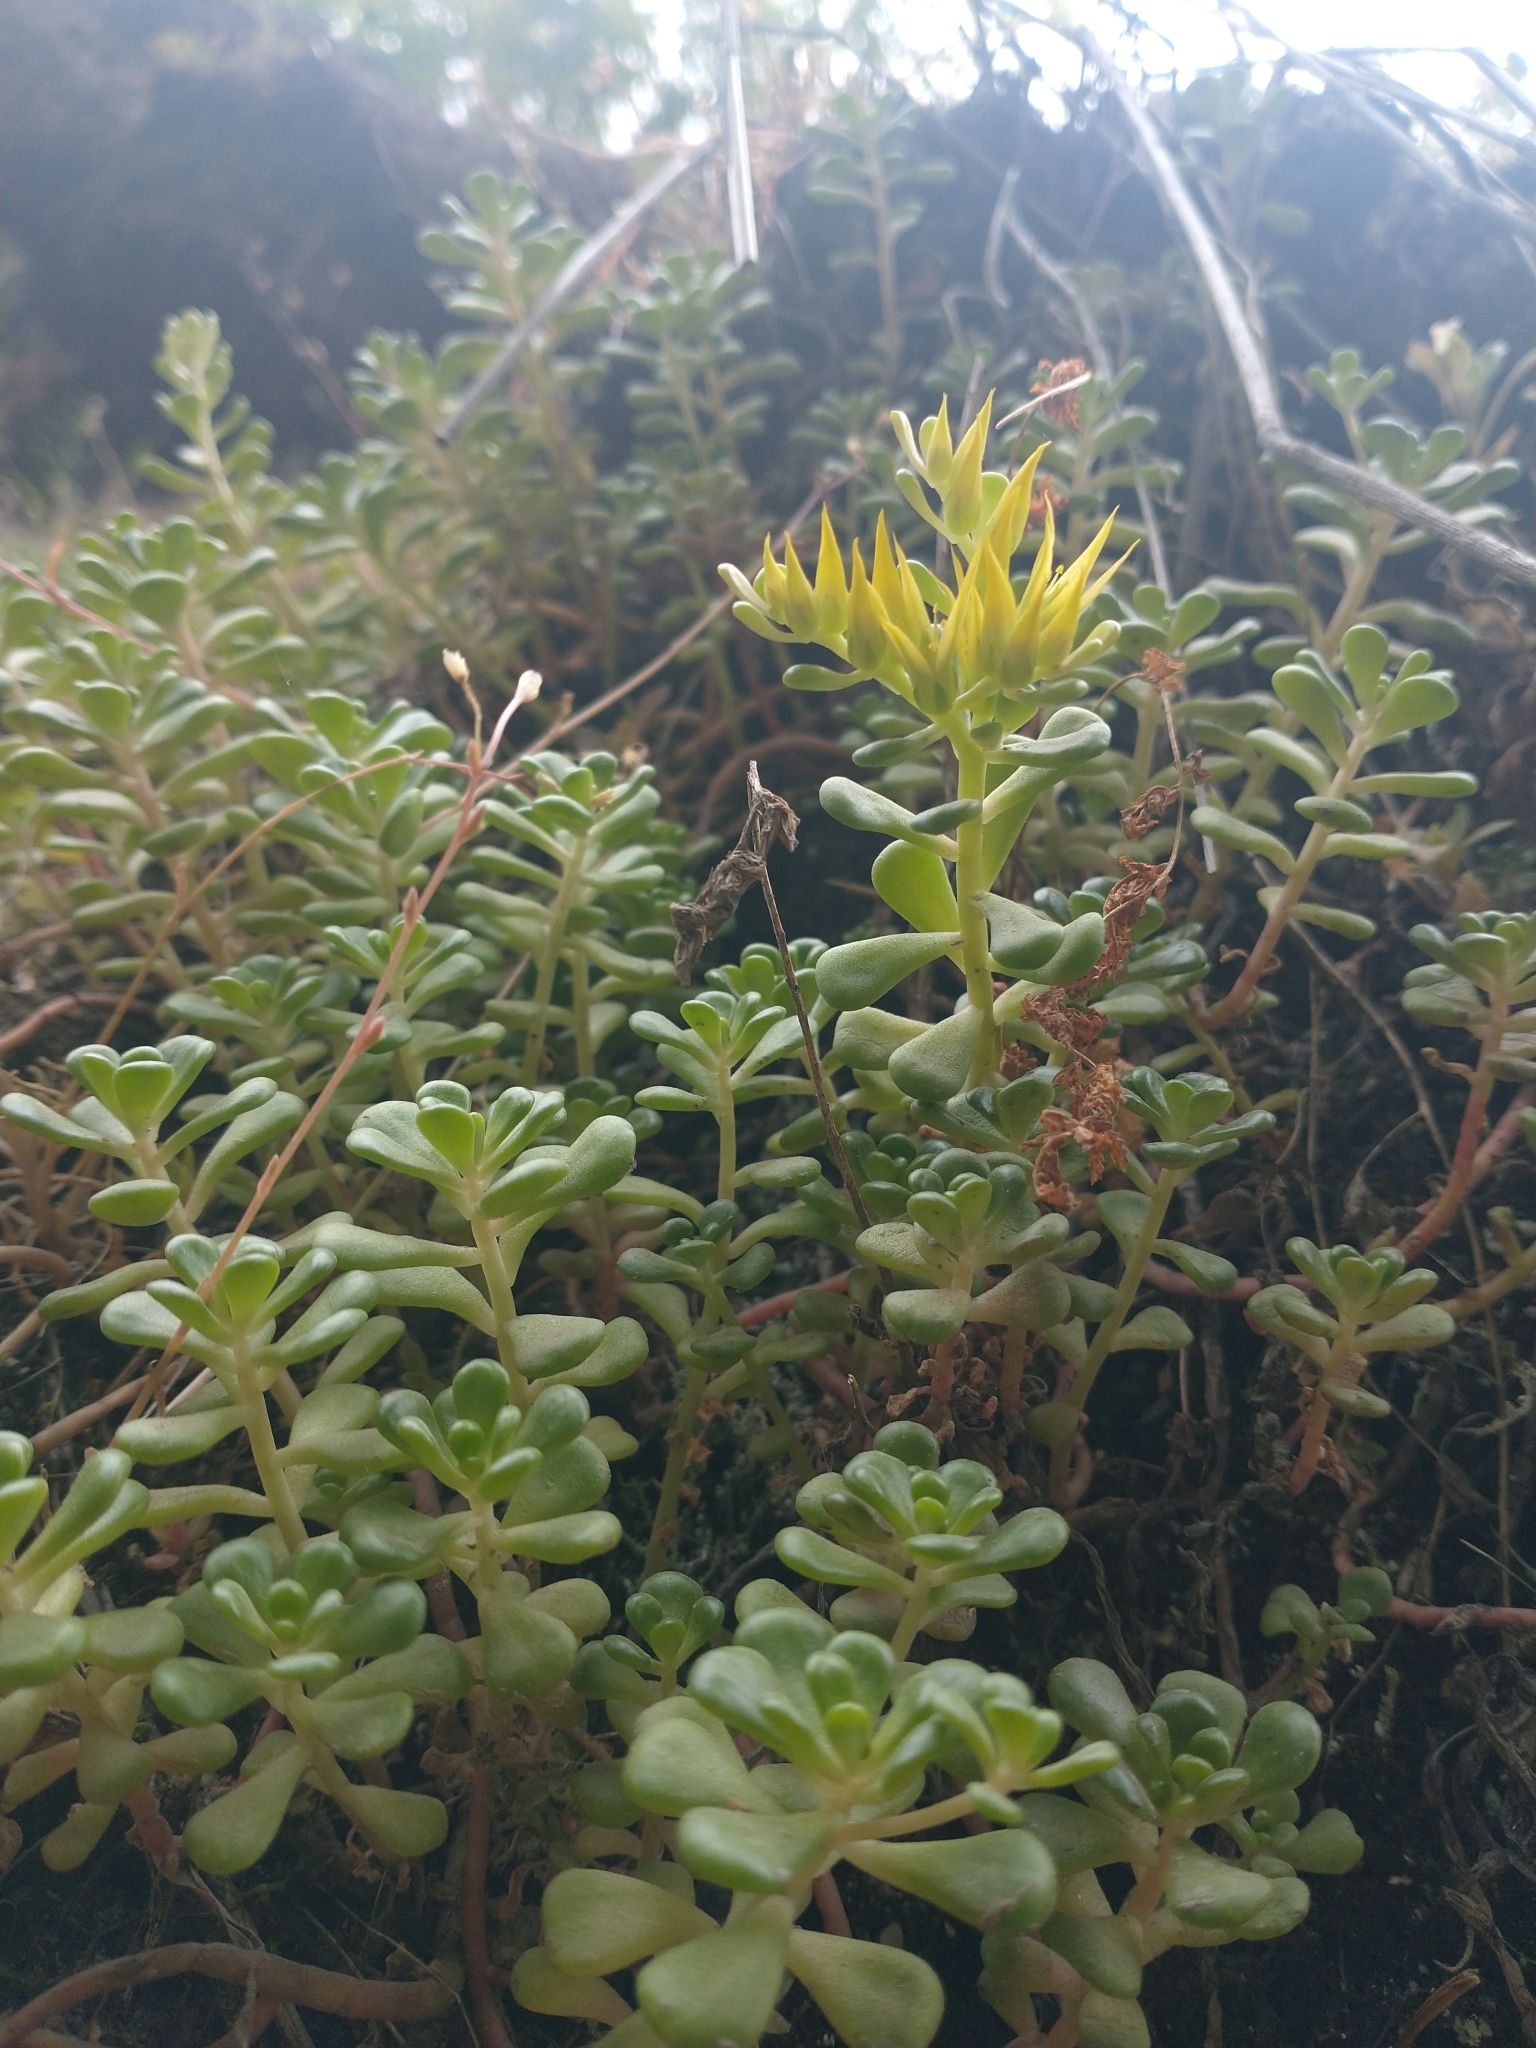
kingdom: Plantae
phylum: Tracheophyta
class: Magnoliopsida
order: Saxifragales
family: Crassulaceae
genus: Sedum
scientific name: Sedum oreganum
